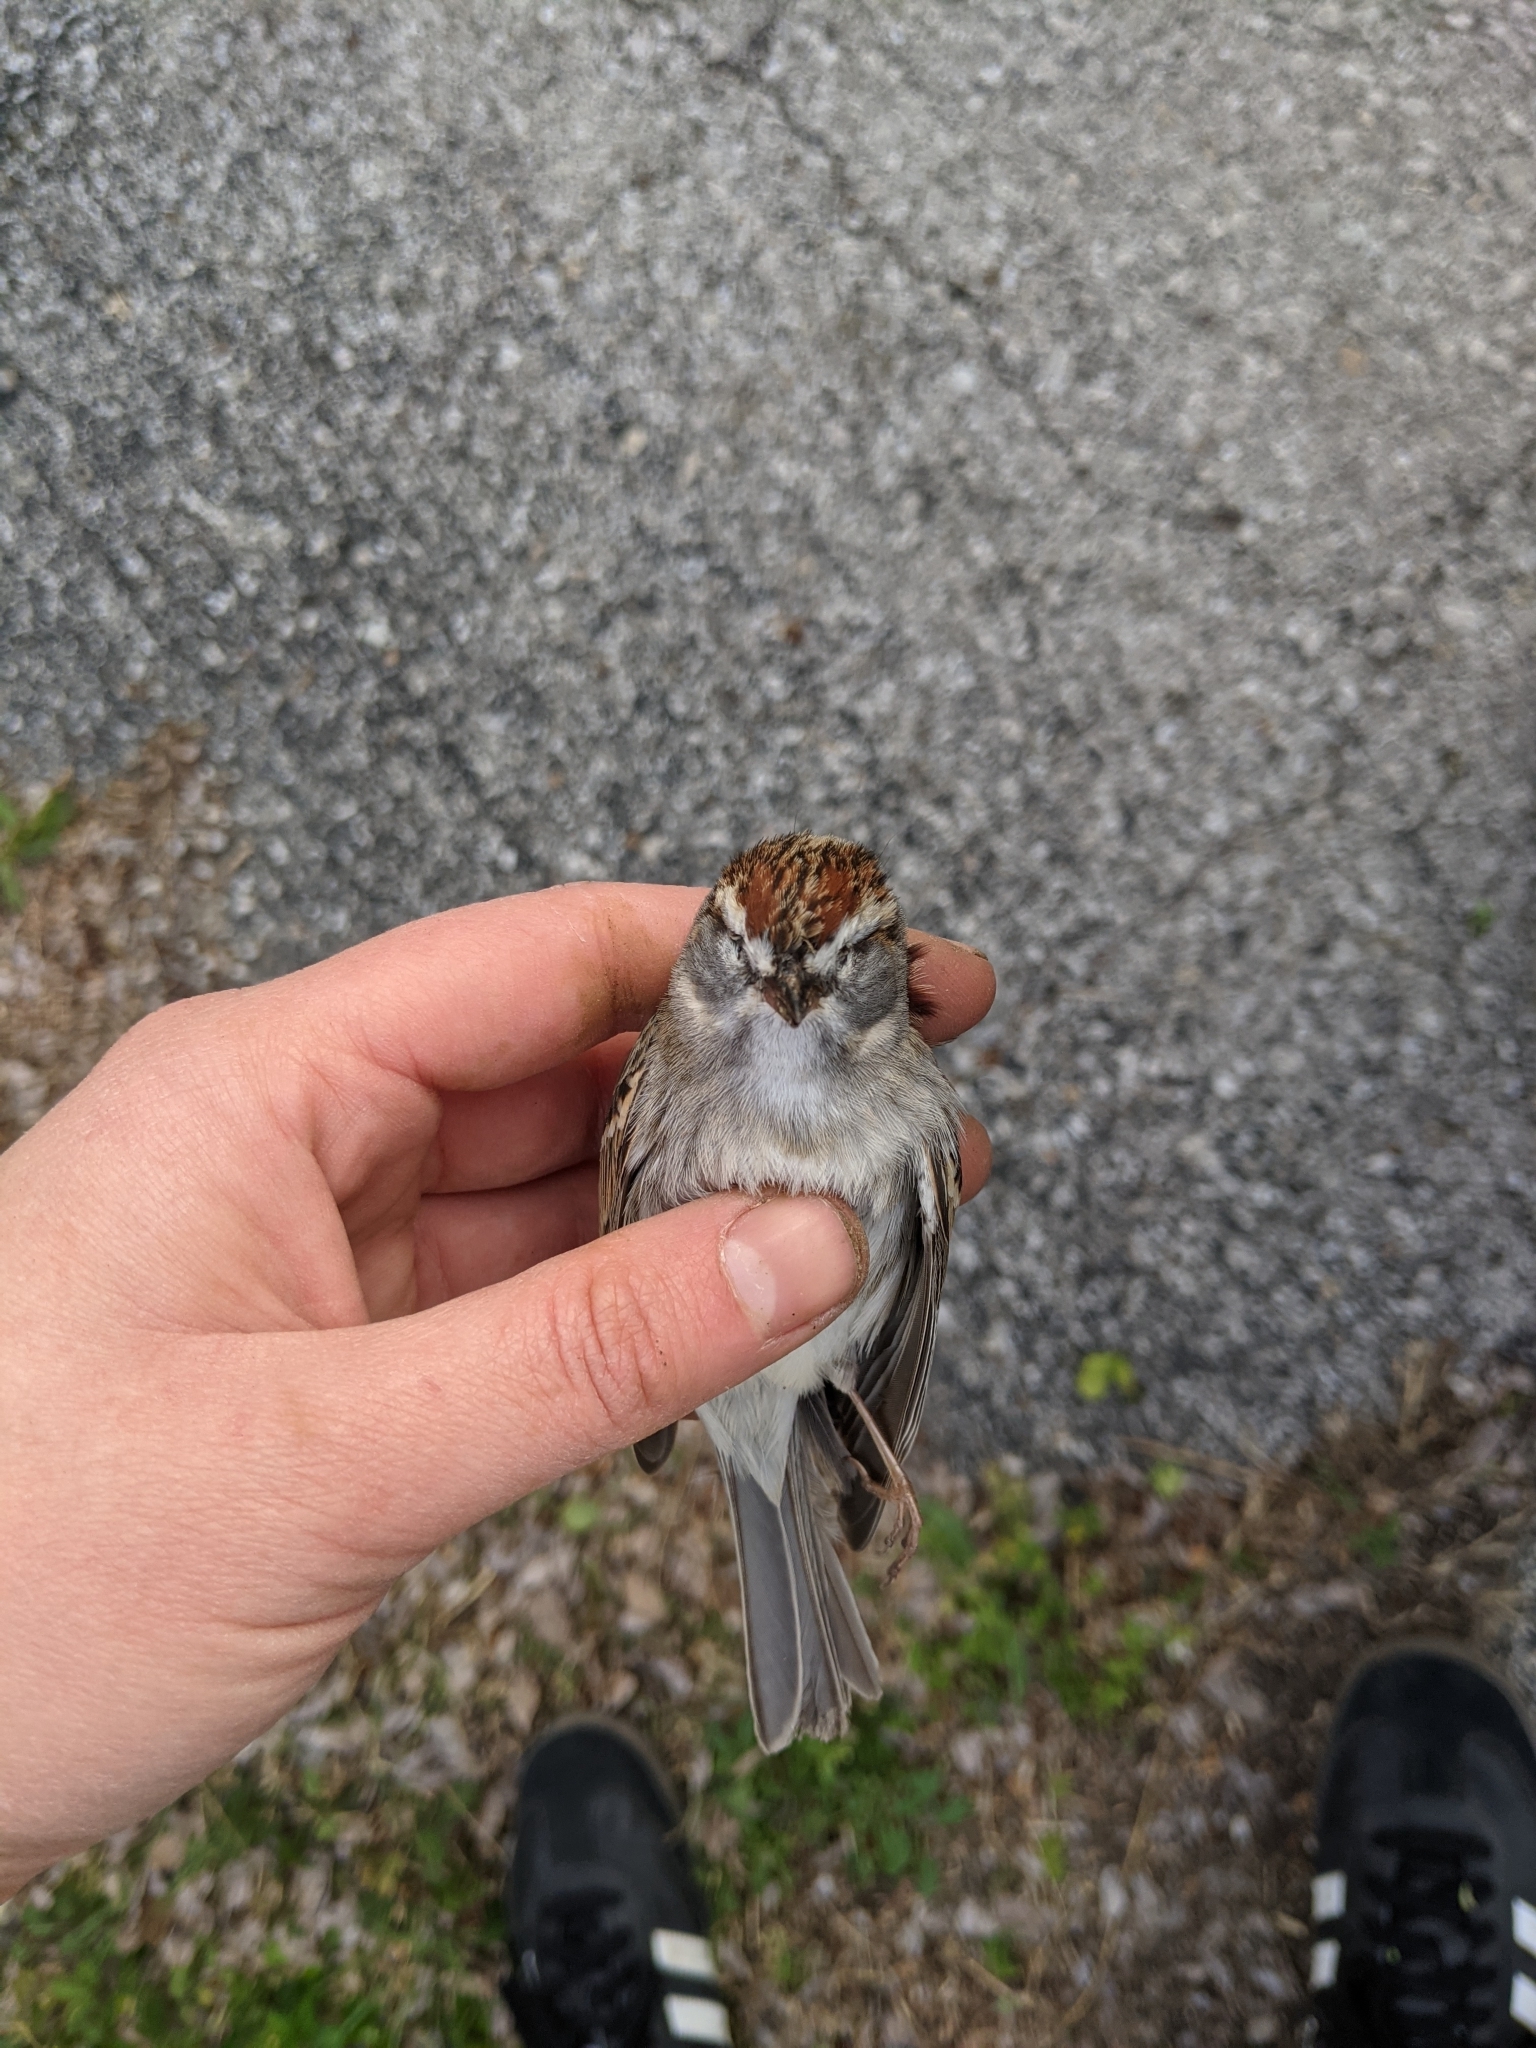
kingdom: Animalia
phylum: Chordata
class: Aves
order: Passeriformes
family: Passerellidae
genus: Spizella
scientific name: Spizella passerina
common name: Chipping sparrow
